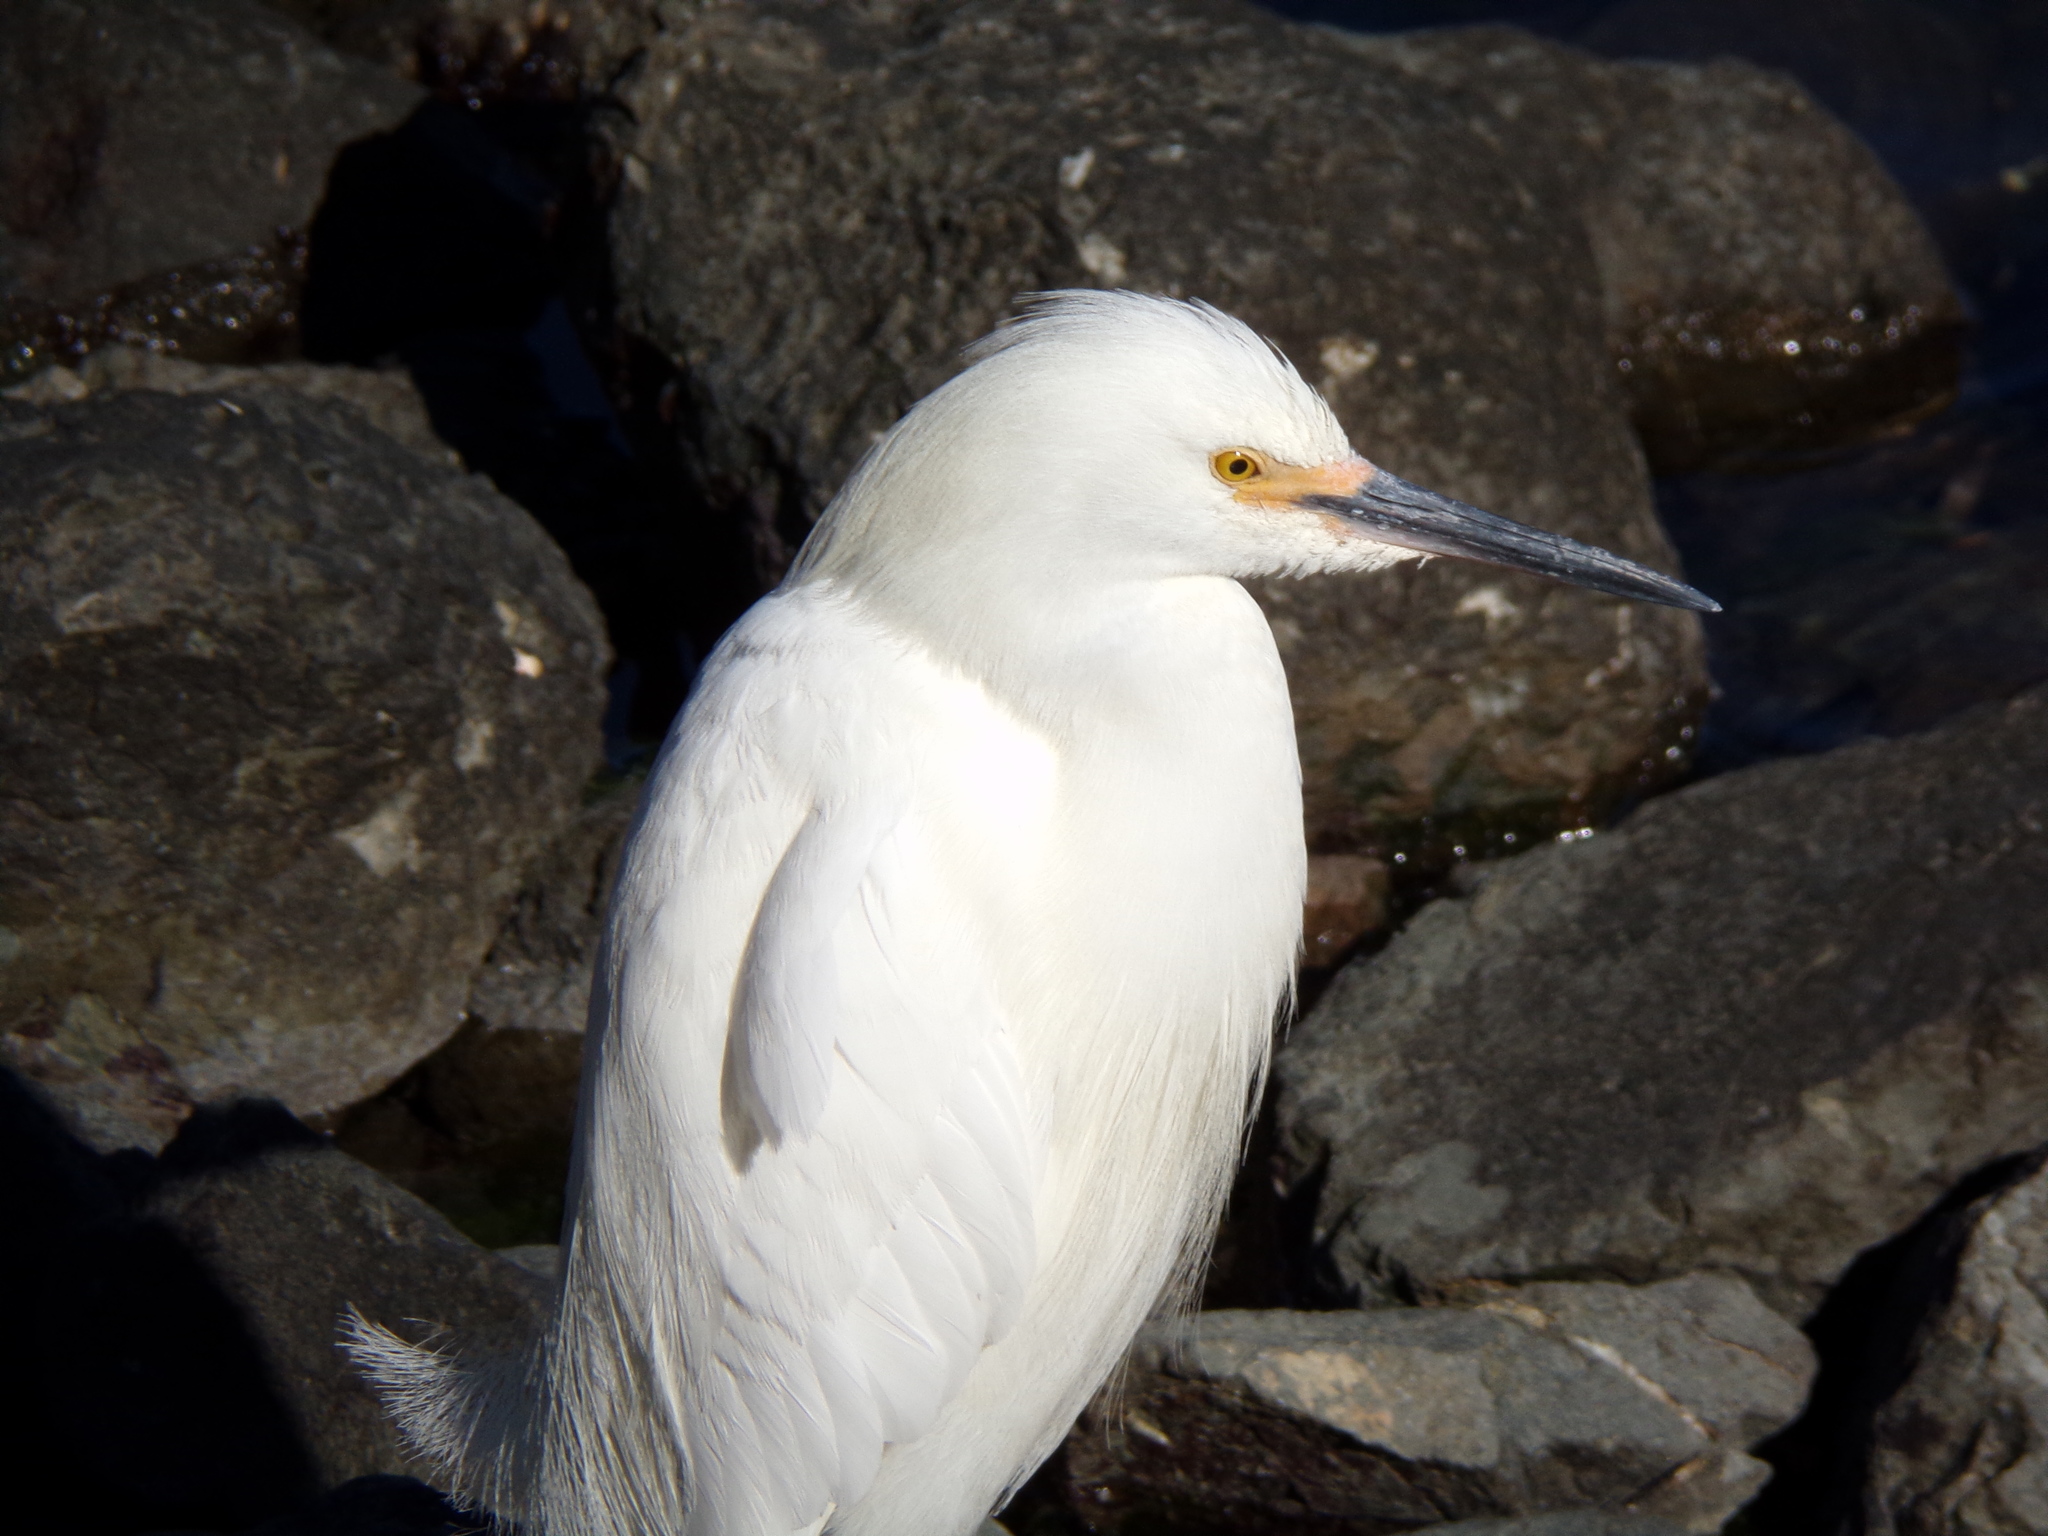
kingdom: Animalia
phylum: Chordata
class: Aves
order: Pelecaniformes
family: Ardeidae
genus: Egretta
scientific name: Egretta thula
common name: Snowy egret
